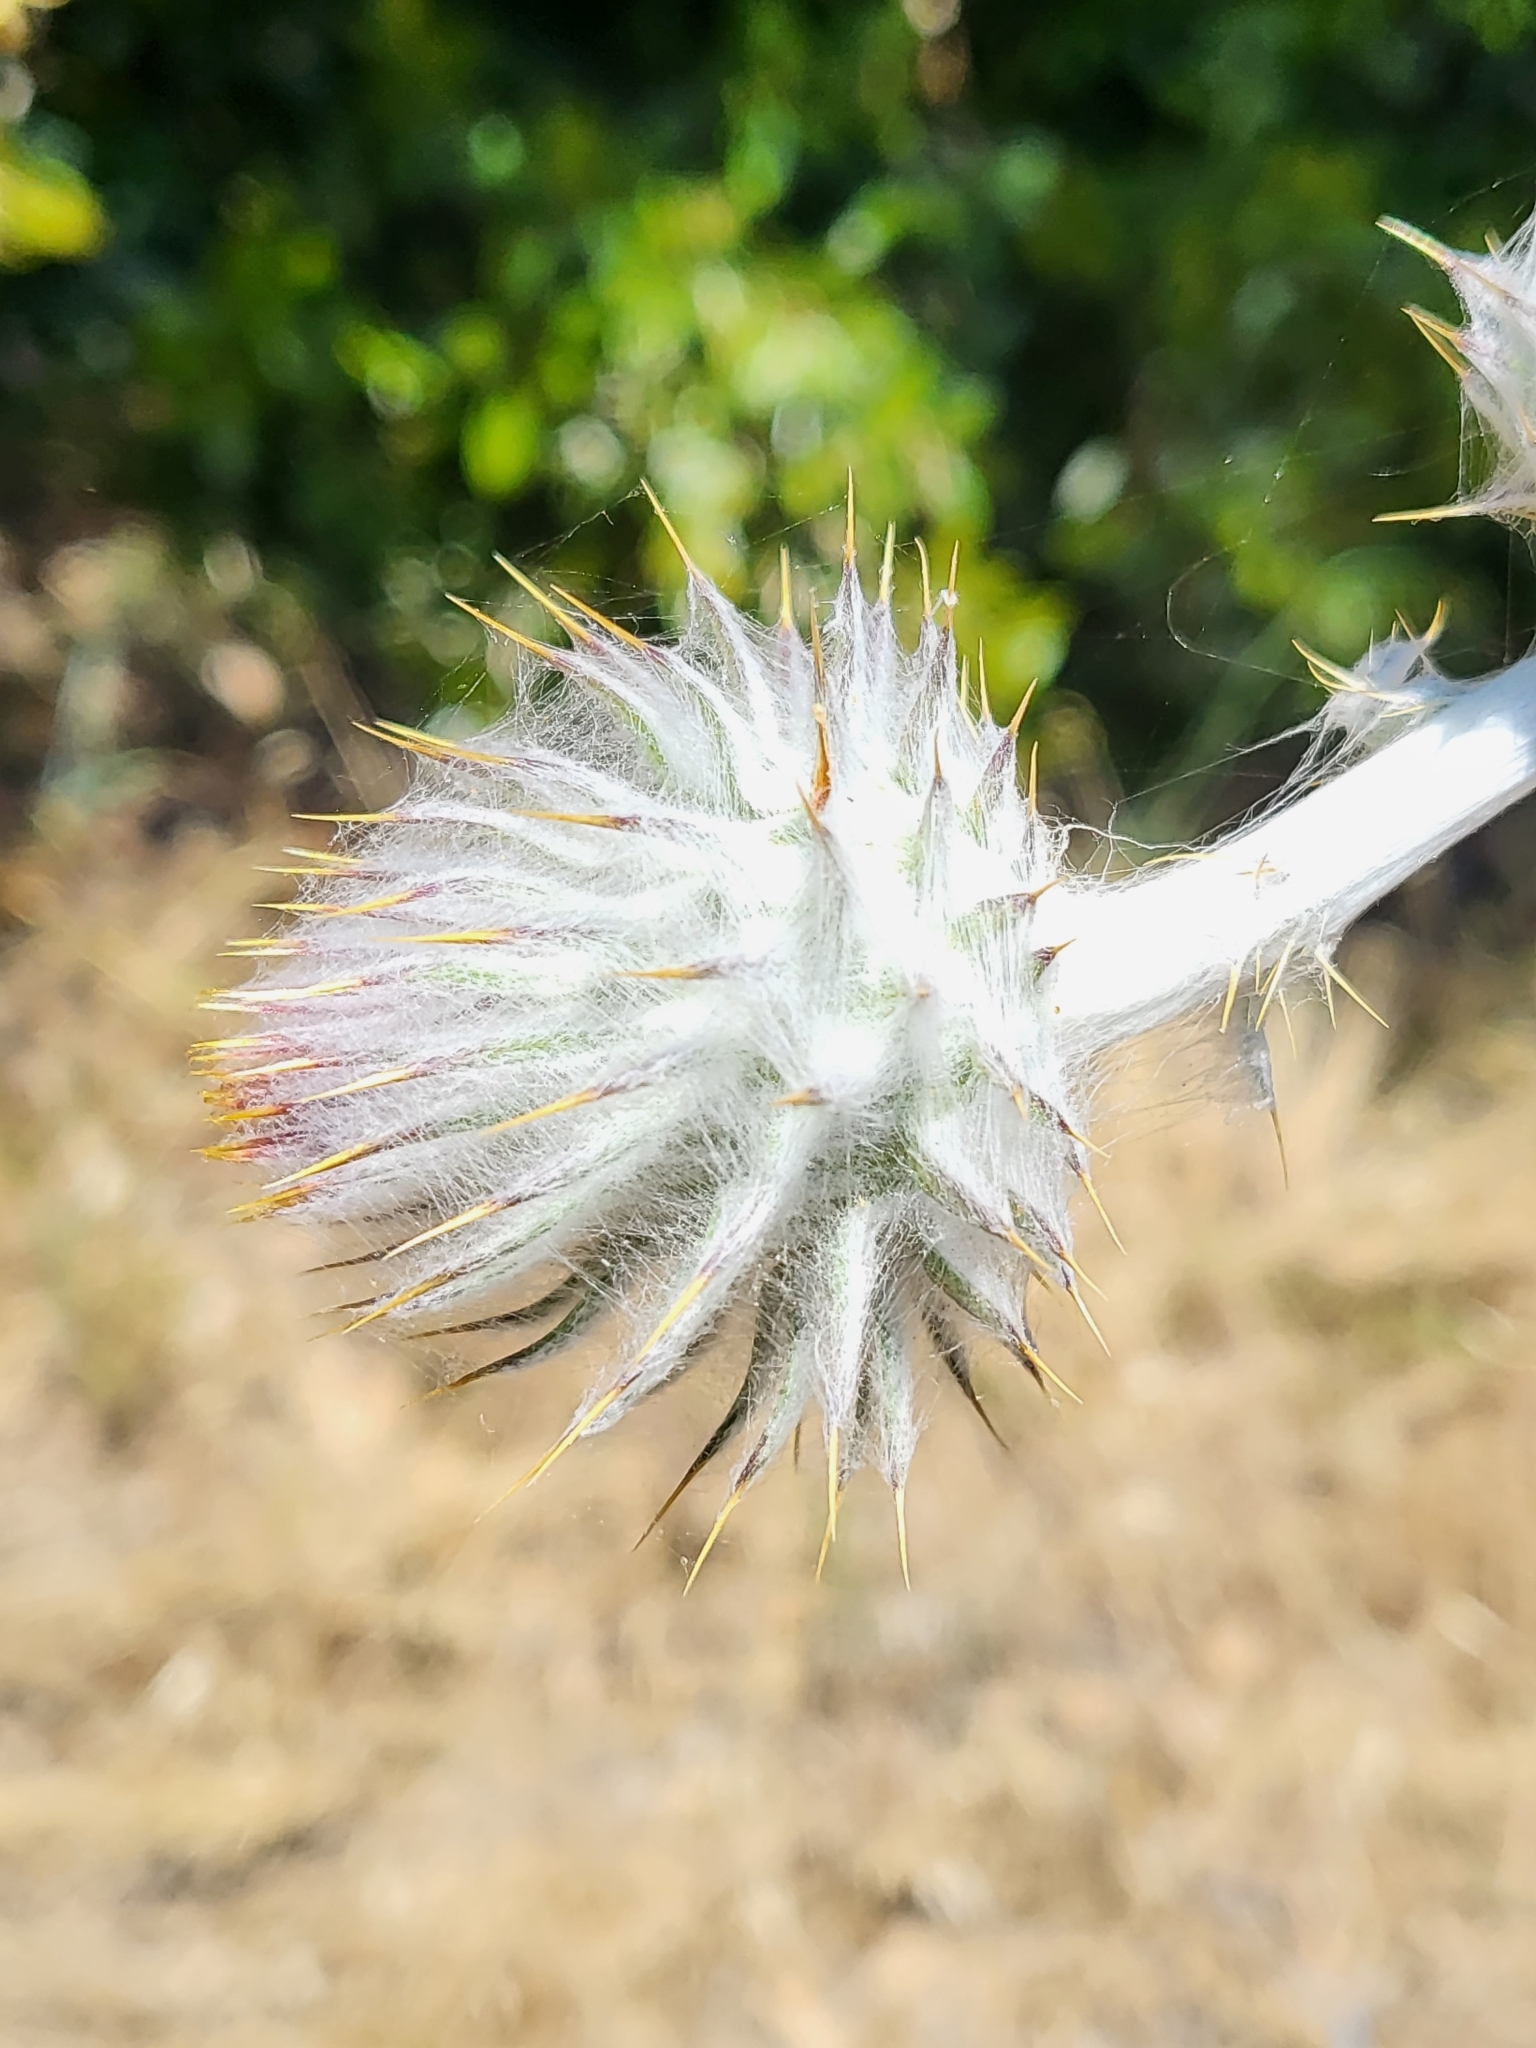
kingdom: Plantae
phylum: Tracheophyta
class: Magnoliopsida
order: Asterales
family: Asteraceae
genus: Cirsium
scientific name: Cirsium occidentale
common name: Western thistle
